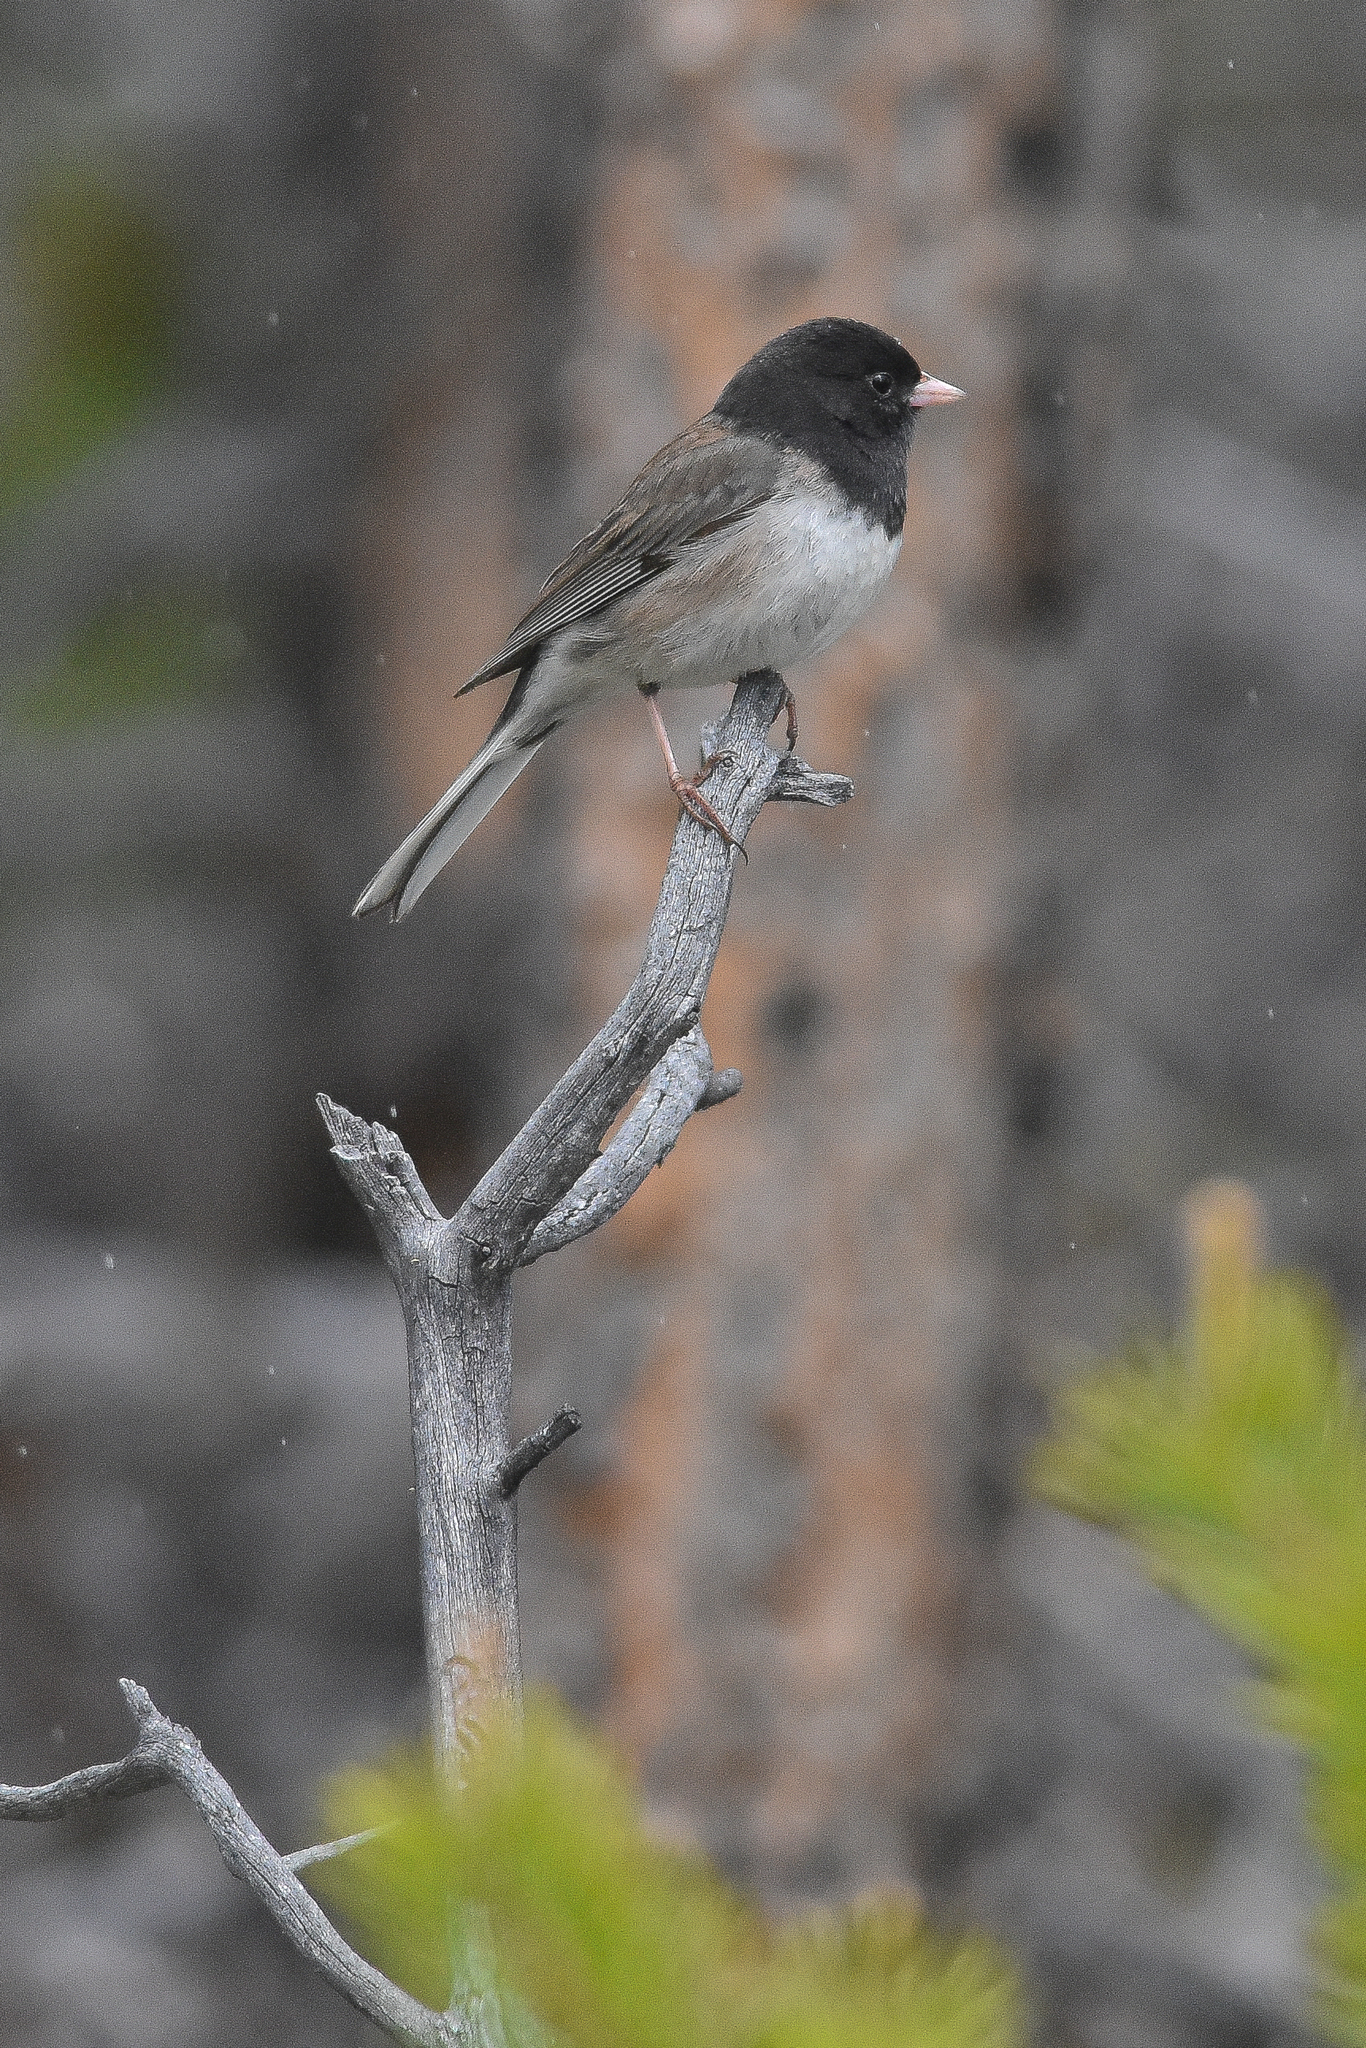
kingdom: Animalia
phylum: Chordata
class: Aves
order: Passeriformes
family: Passerellidae
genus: Junco
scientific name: Junco hyemalis
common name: Dark-eyed junco
